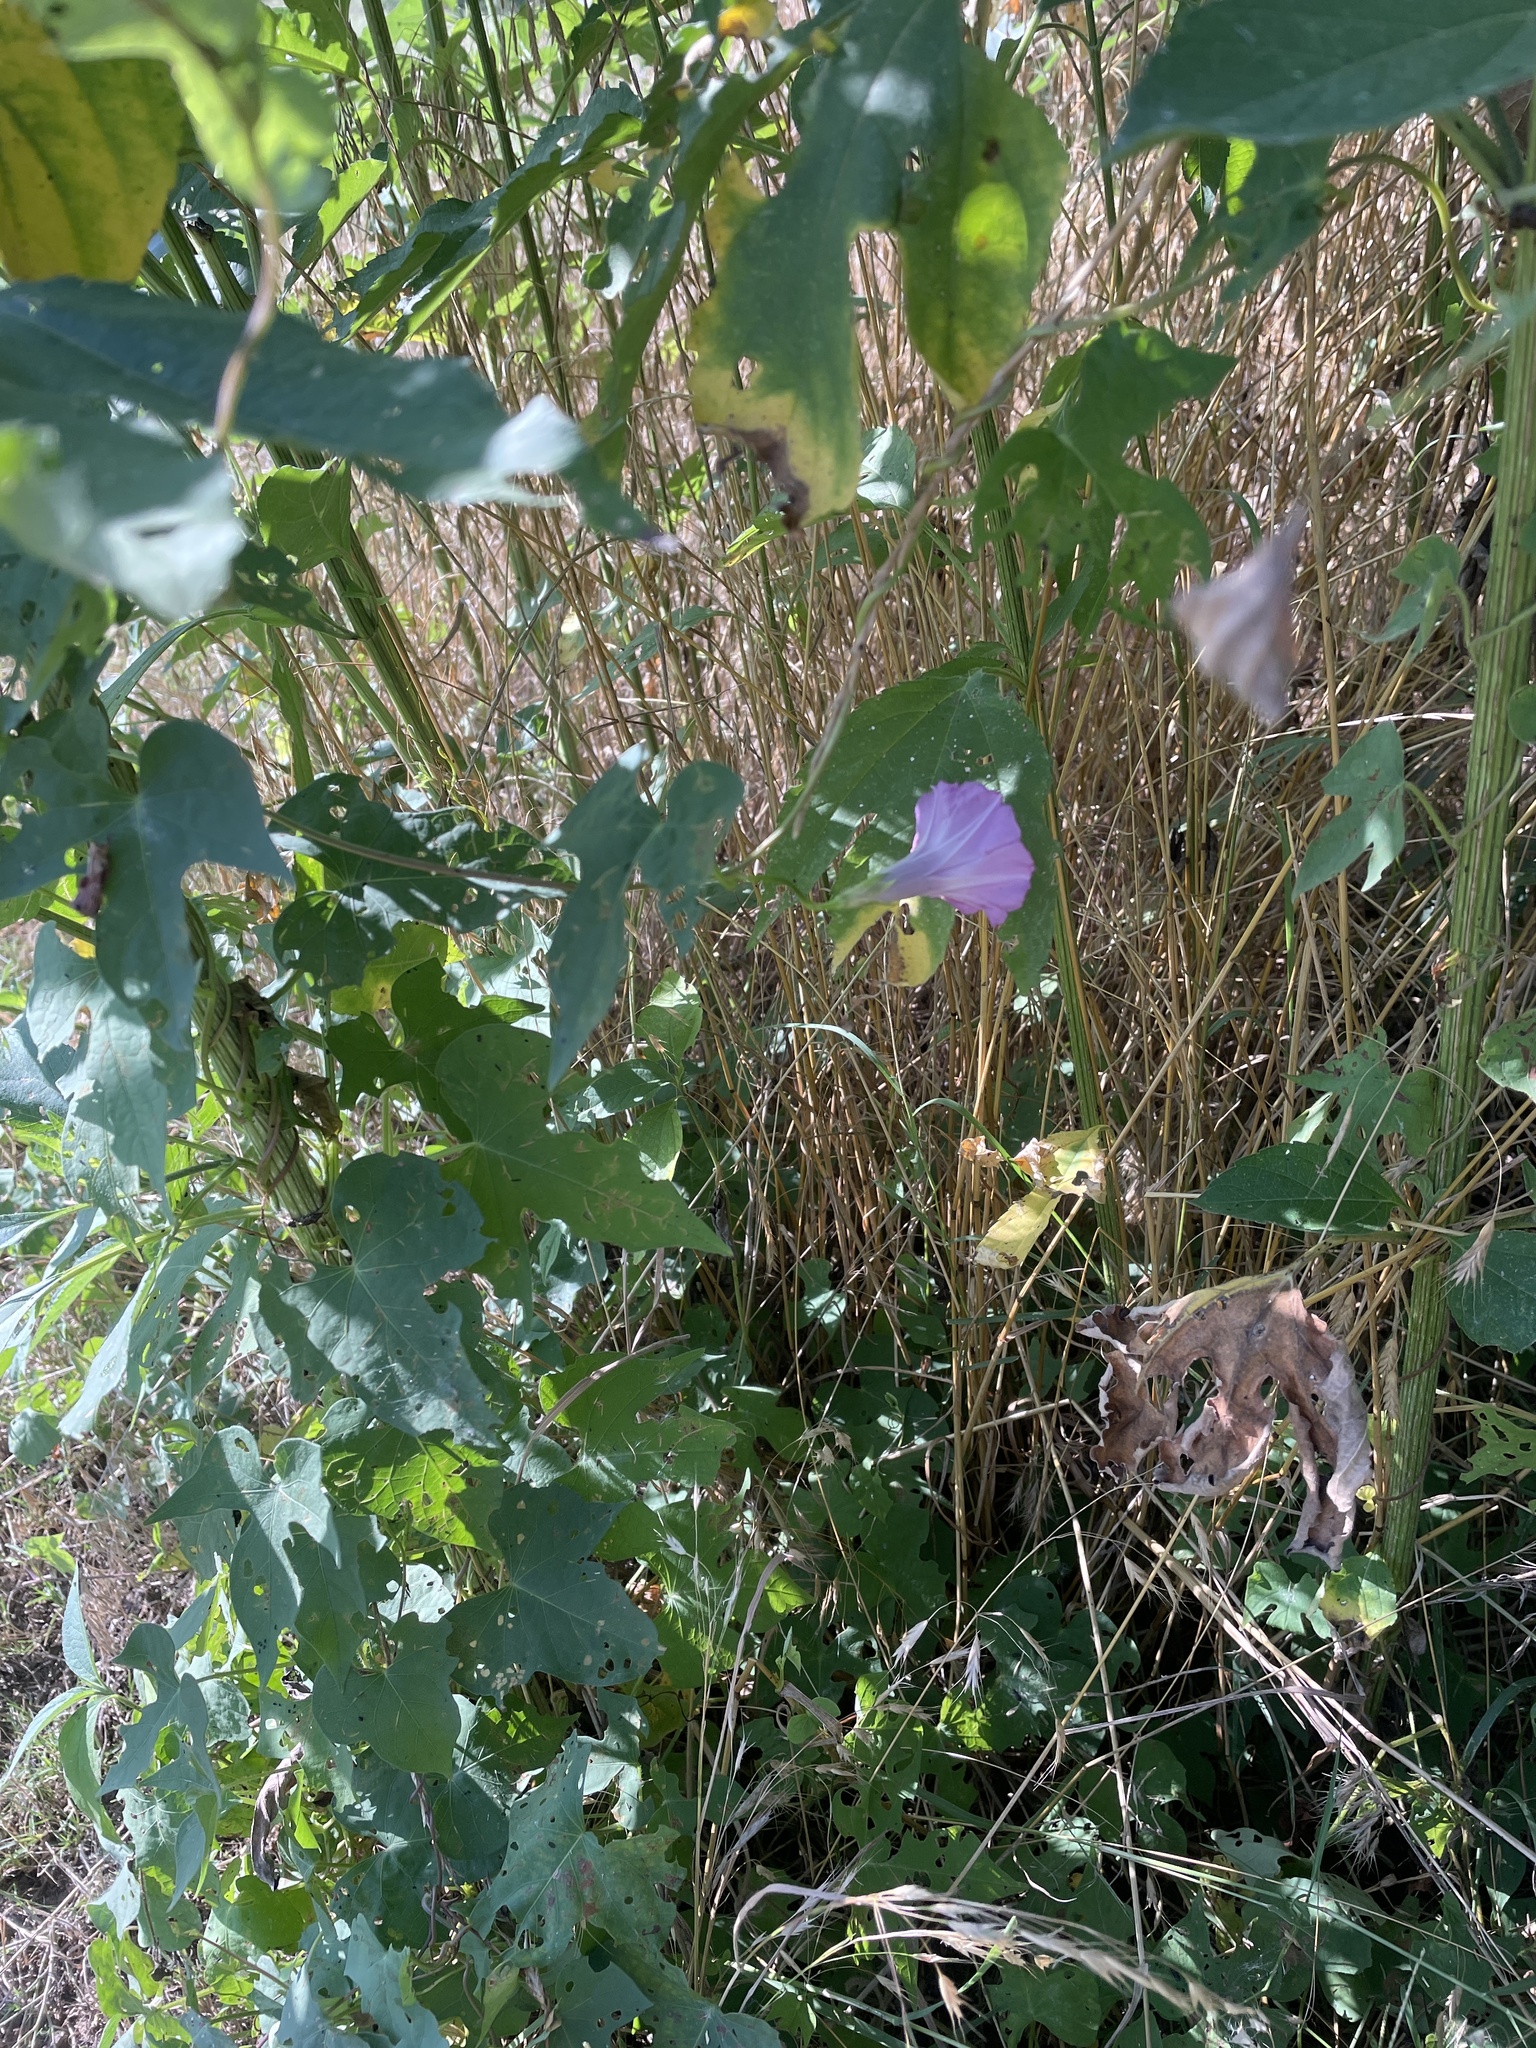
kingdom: Plantae
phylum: Tracheophyta
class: Magnoliopsida
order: Solanales
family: Convolvulaceae
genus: Ipomoea
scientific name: Ipomoea cordatotriloba
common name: Cotton morning glory
